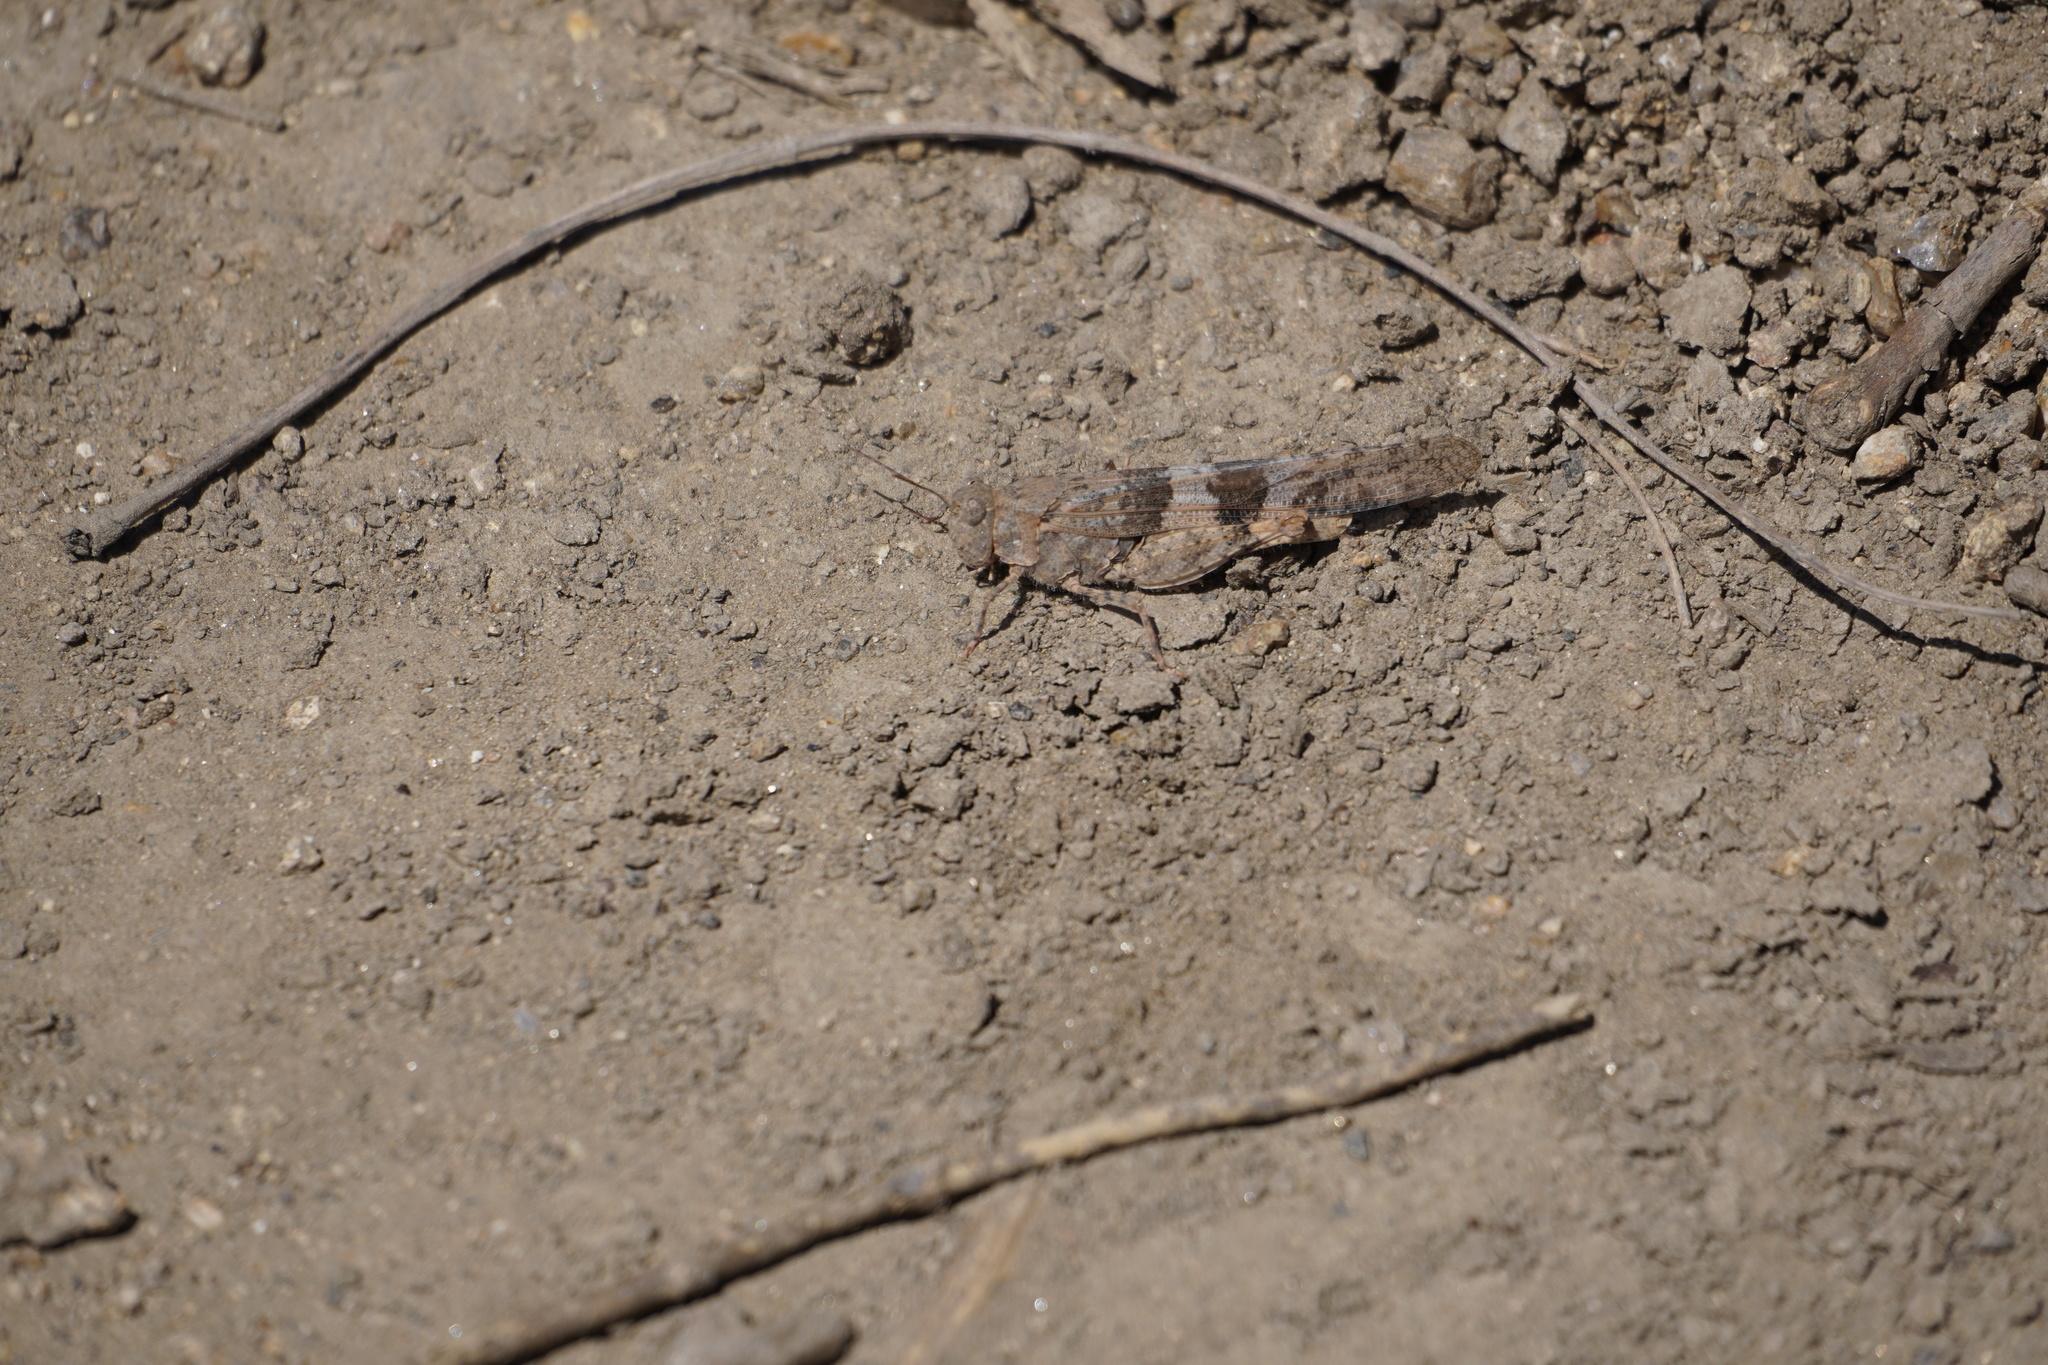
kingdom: Animalia
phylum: Arthropoda
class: Insecta
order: Orthoptera
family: Acrididae
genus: Trimerotropis
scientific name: Trimerotropis pallidipennis
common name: Pallid-winged grasshopper
